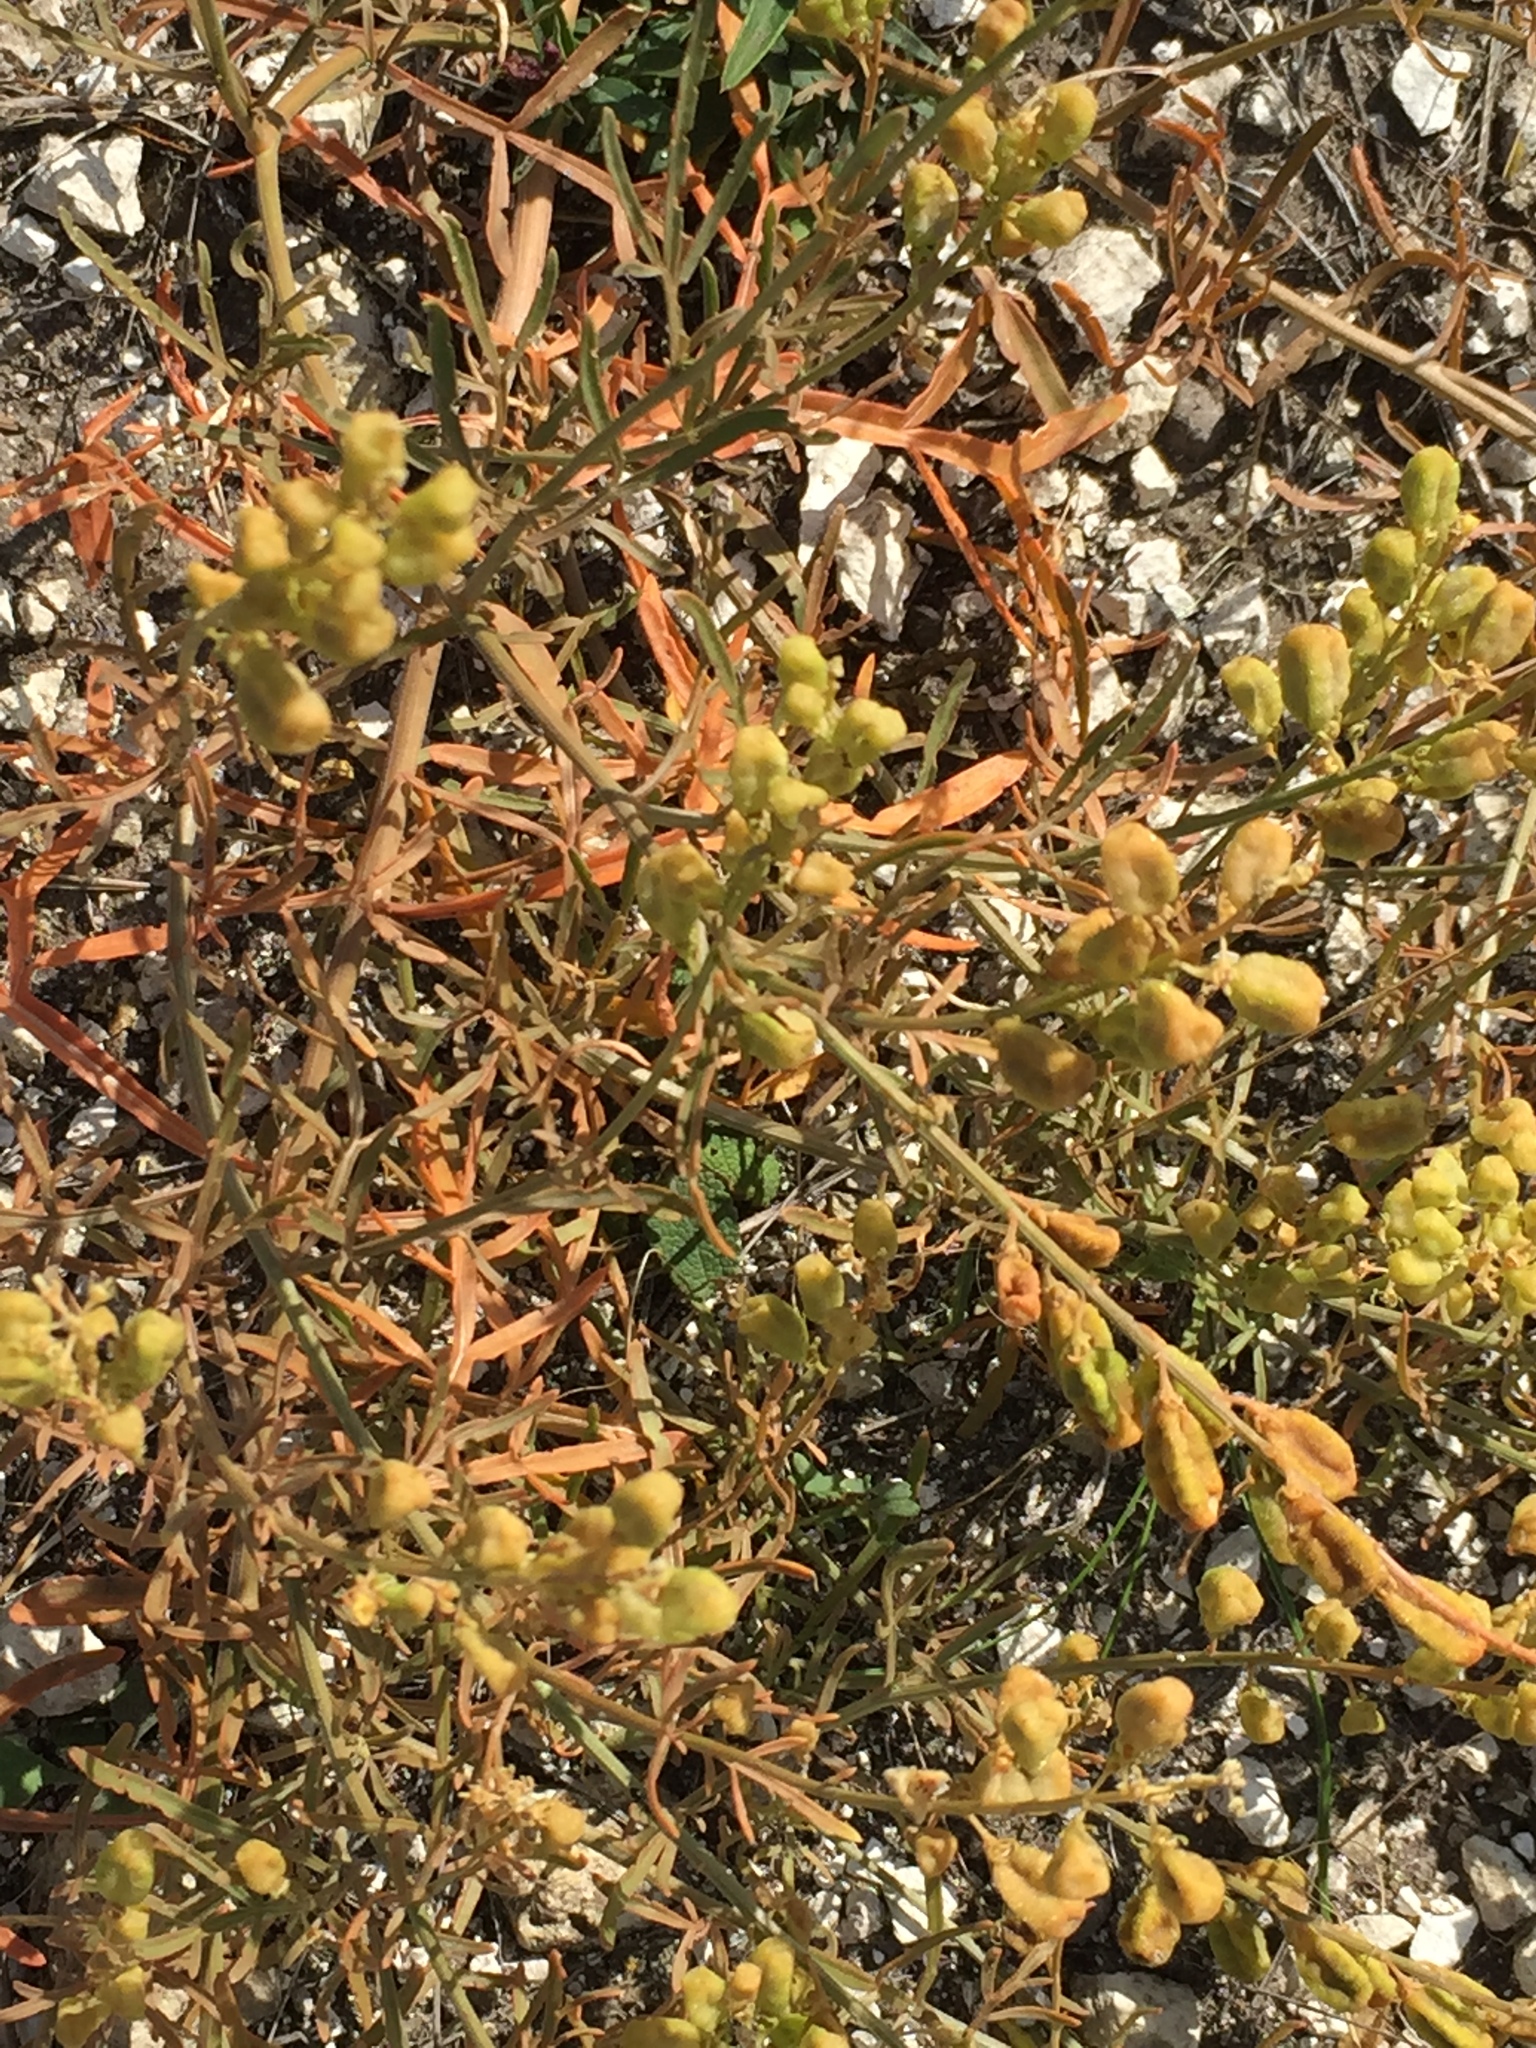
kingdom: Plantae
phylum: Tracheophyta
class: Magnoliopsida
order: Brassicales
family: Resedaceae
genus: Reseda
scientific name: Reseda lutea
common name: Wild mignonette
